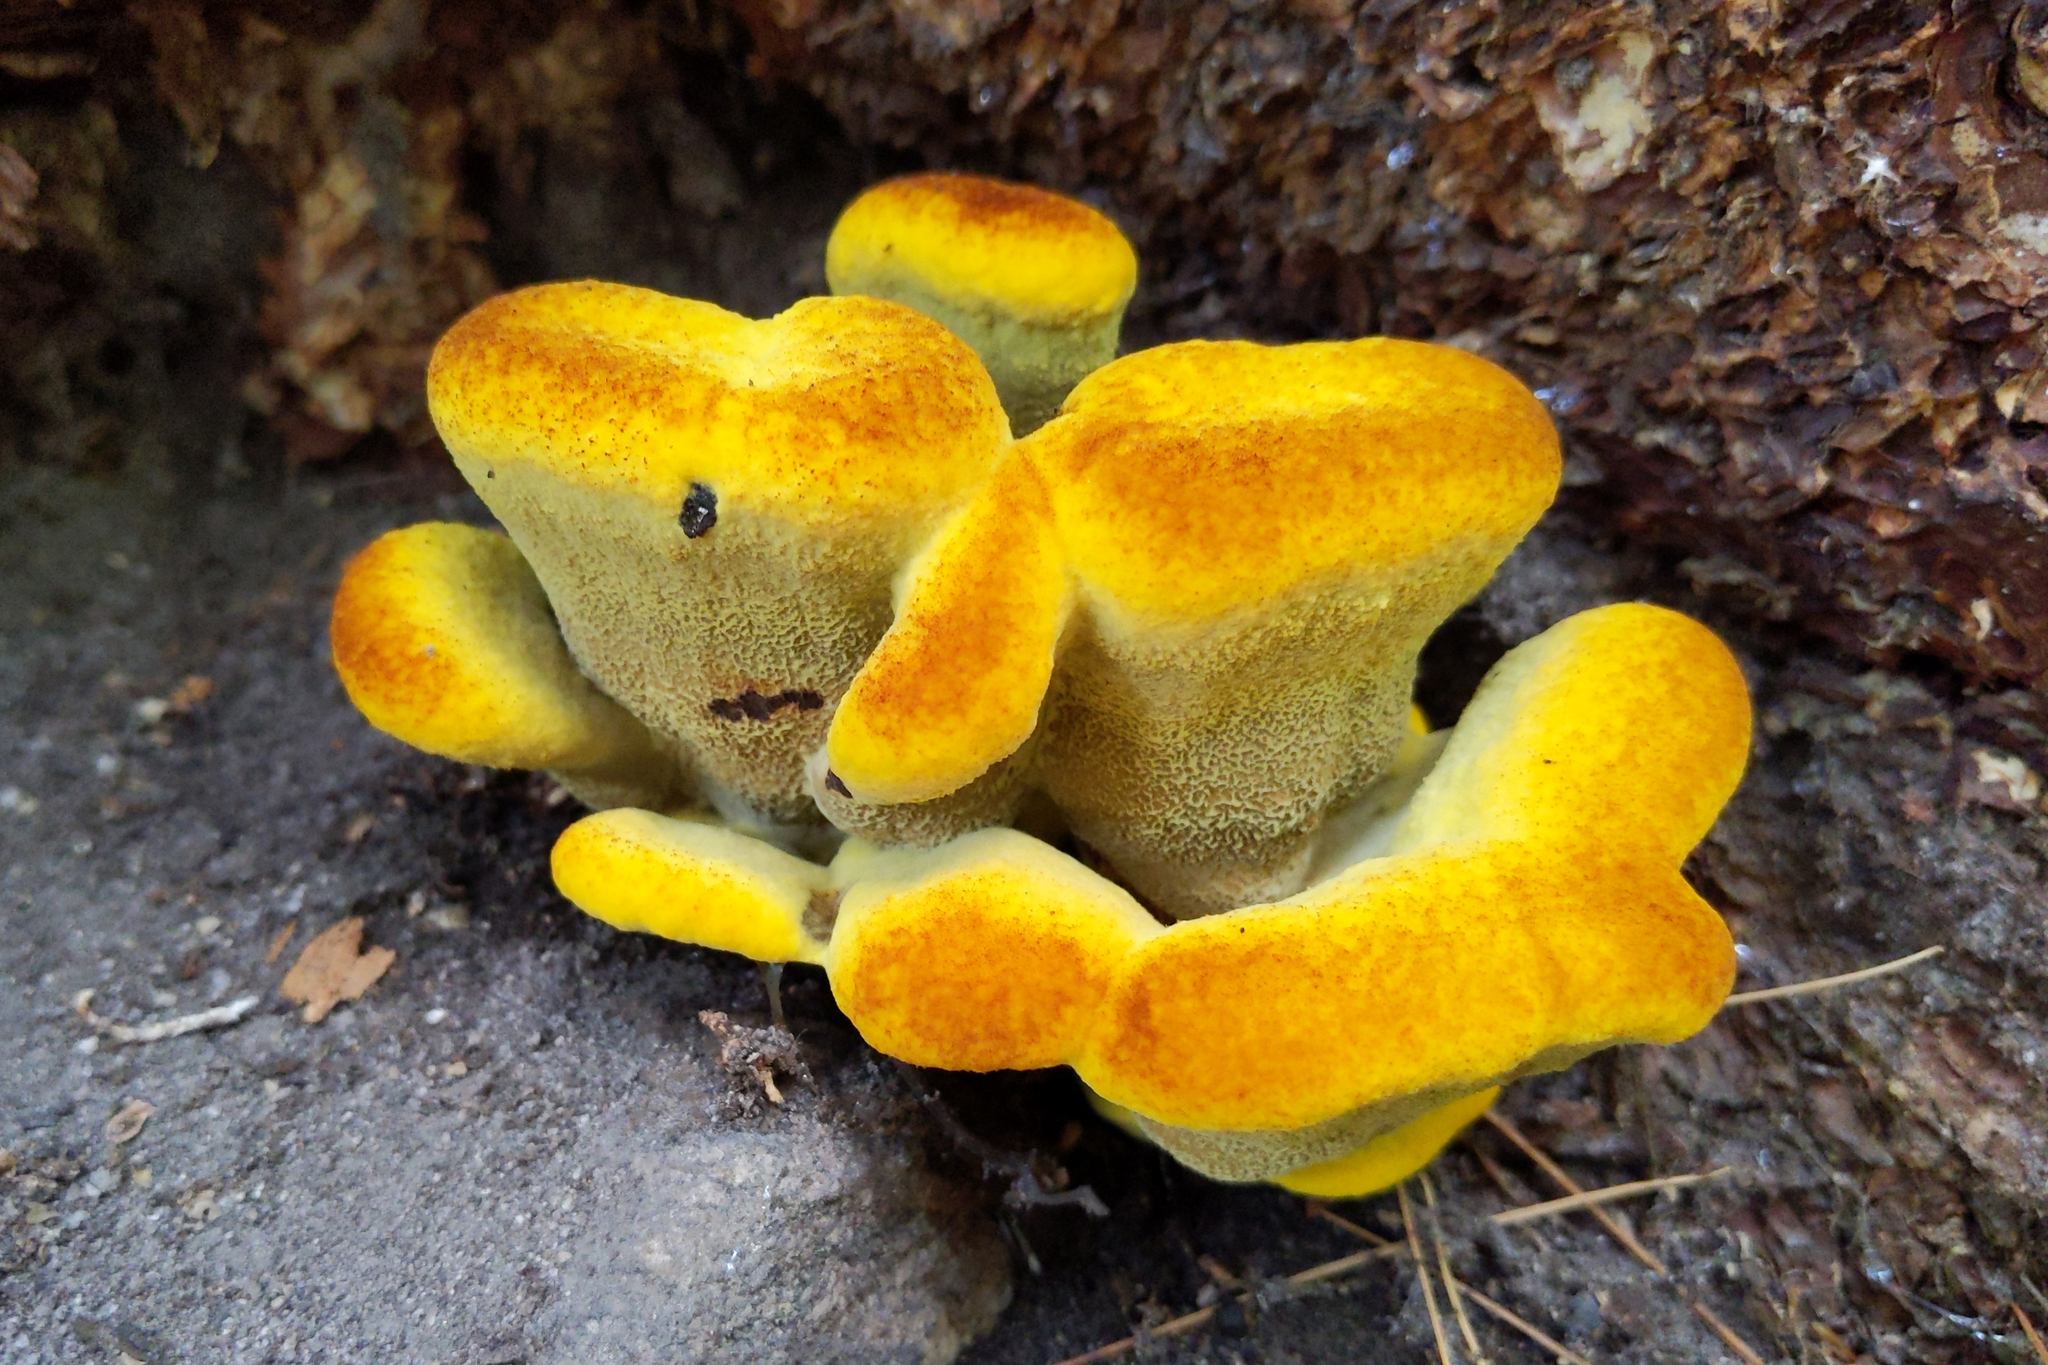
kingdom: Fungi
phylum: Basidiomycota
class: Agaricomycetes
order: Polyporales
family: Laetiporaceae
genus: Phaeolus
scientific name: Phaeolus schweinitzii
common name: Dyer's mazegill
